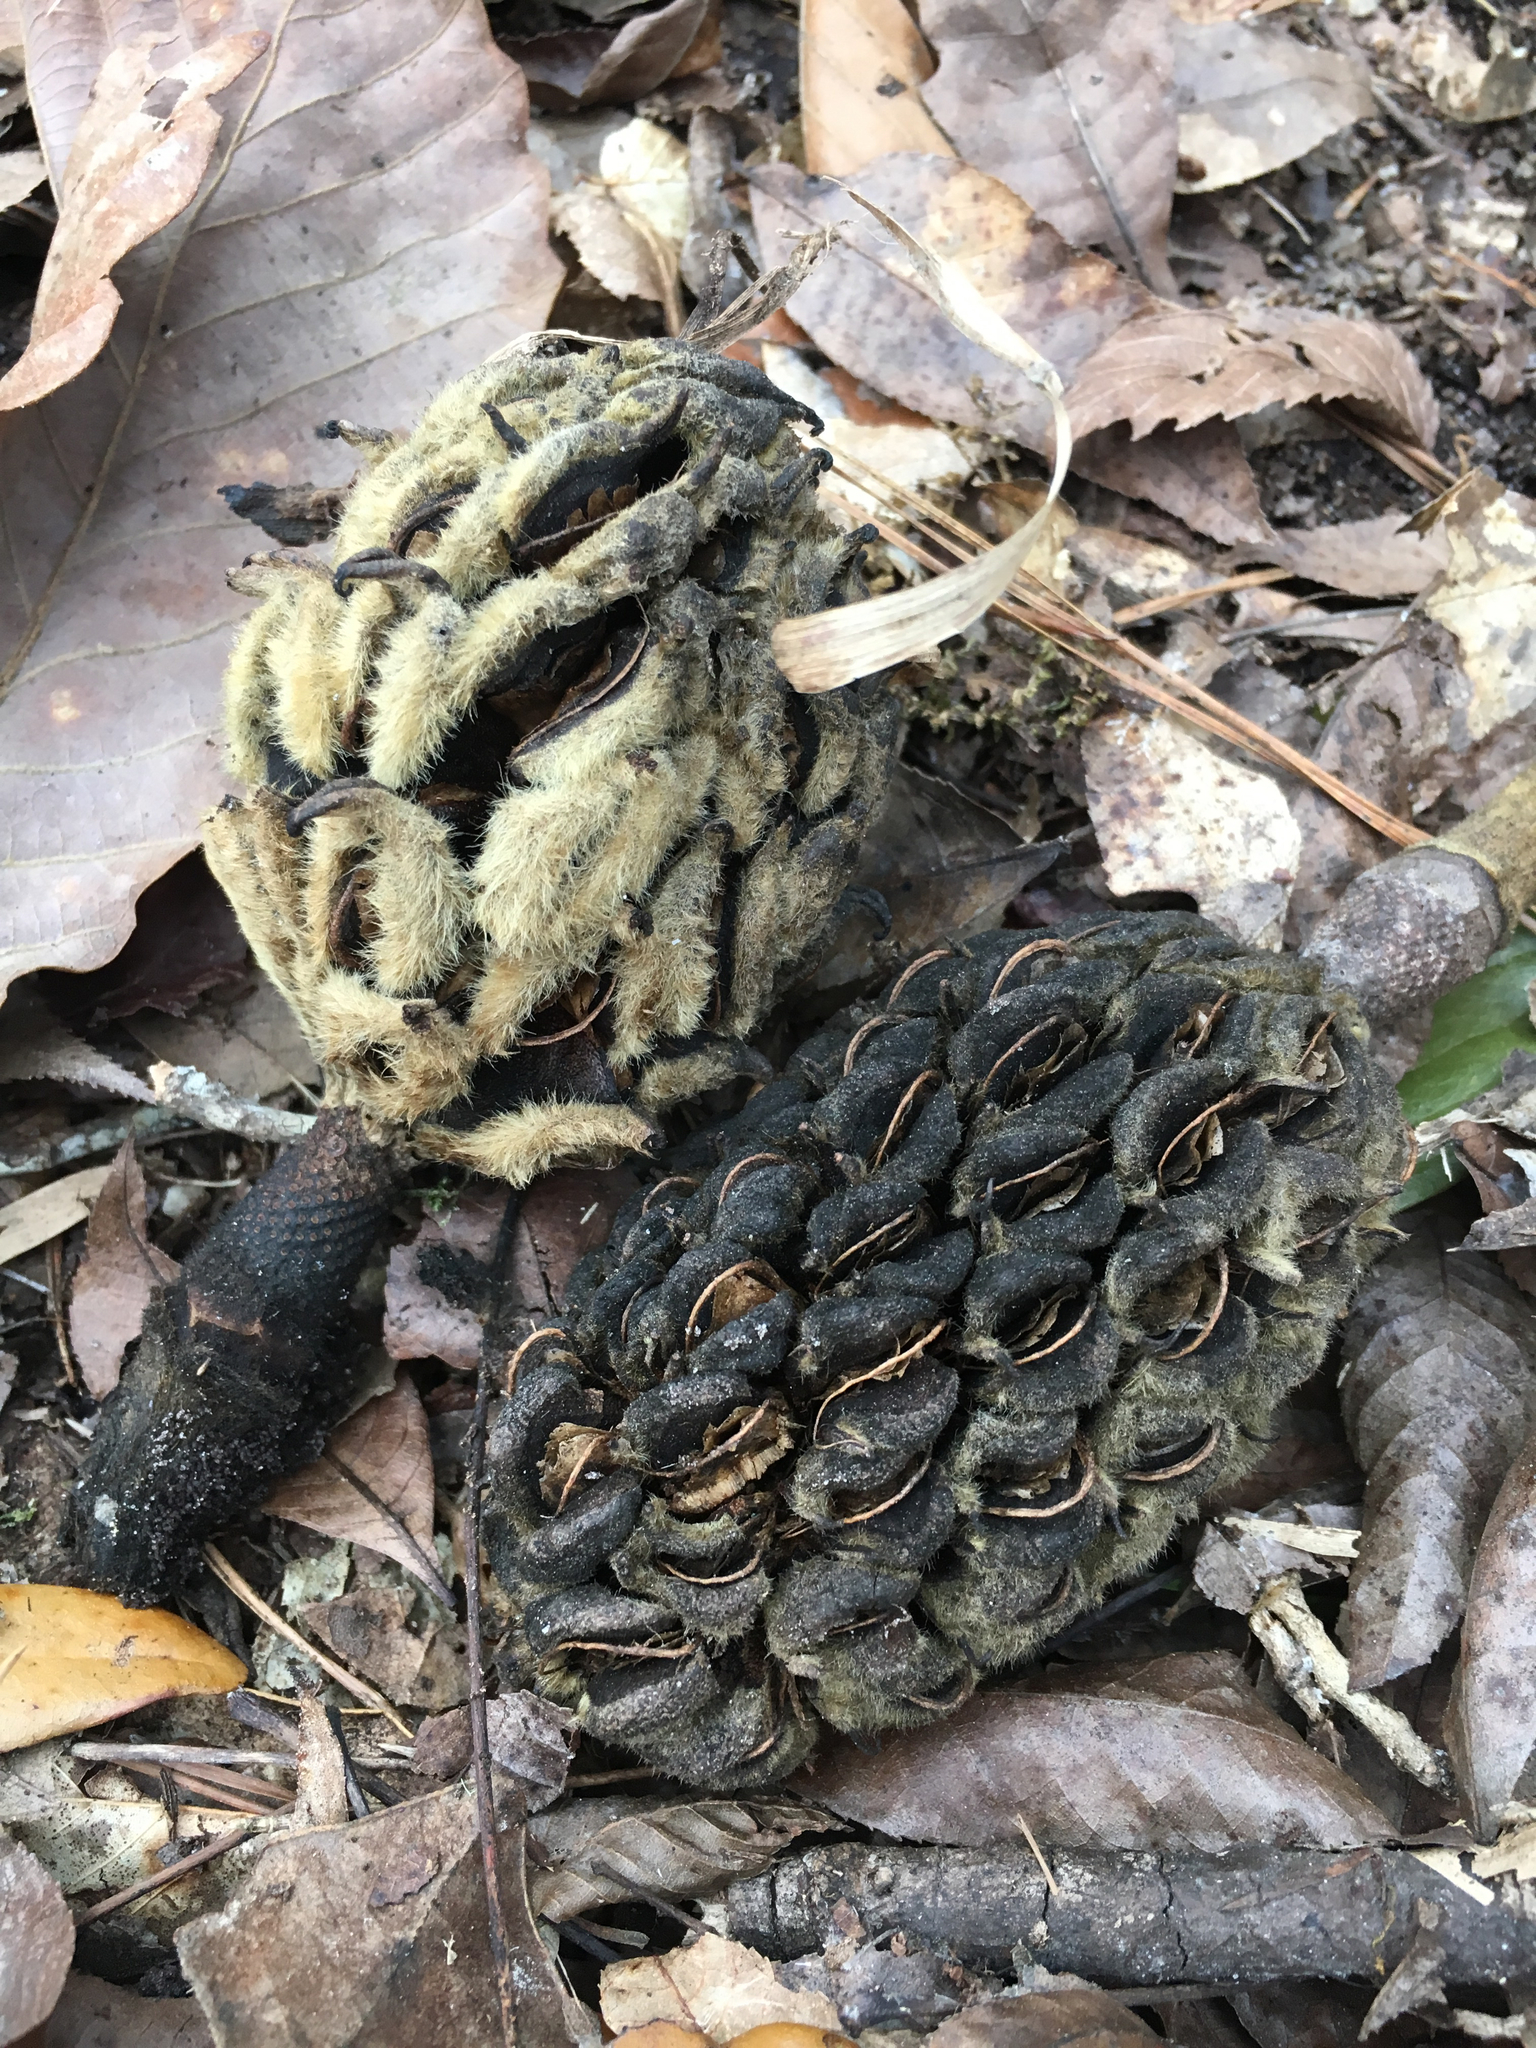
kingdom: Plantae
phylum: Tracheophyta
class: Magnoliopsida
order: Magnoliales
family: Magnoliaceae
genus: Magnolia
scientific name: Magnolia grandiflora
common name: Southern magnolia
